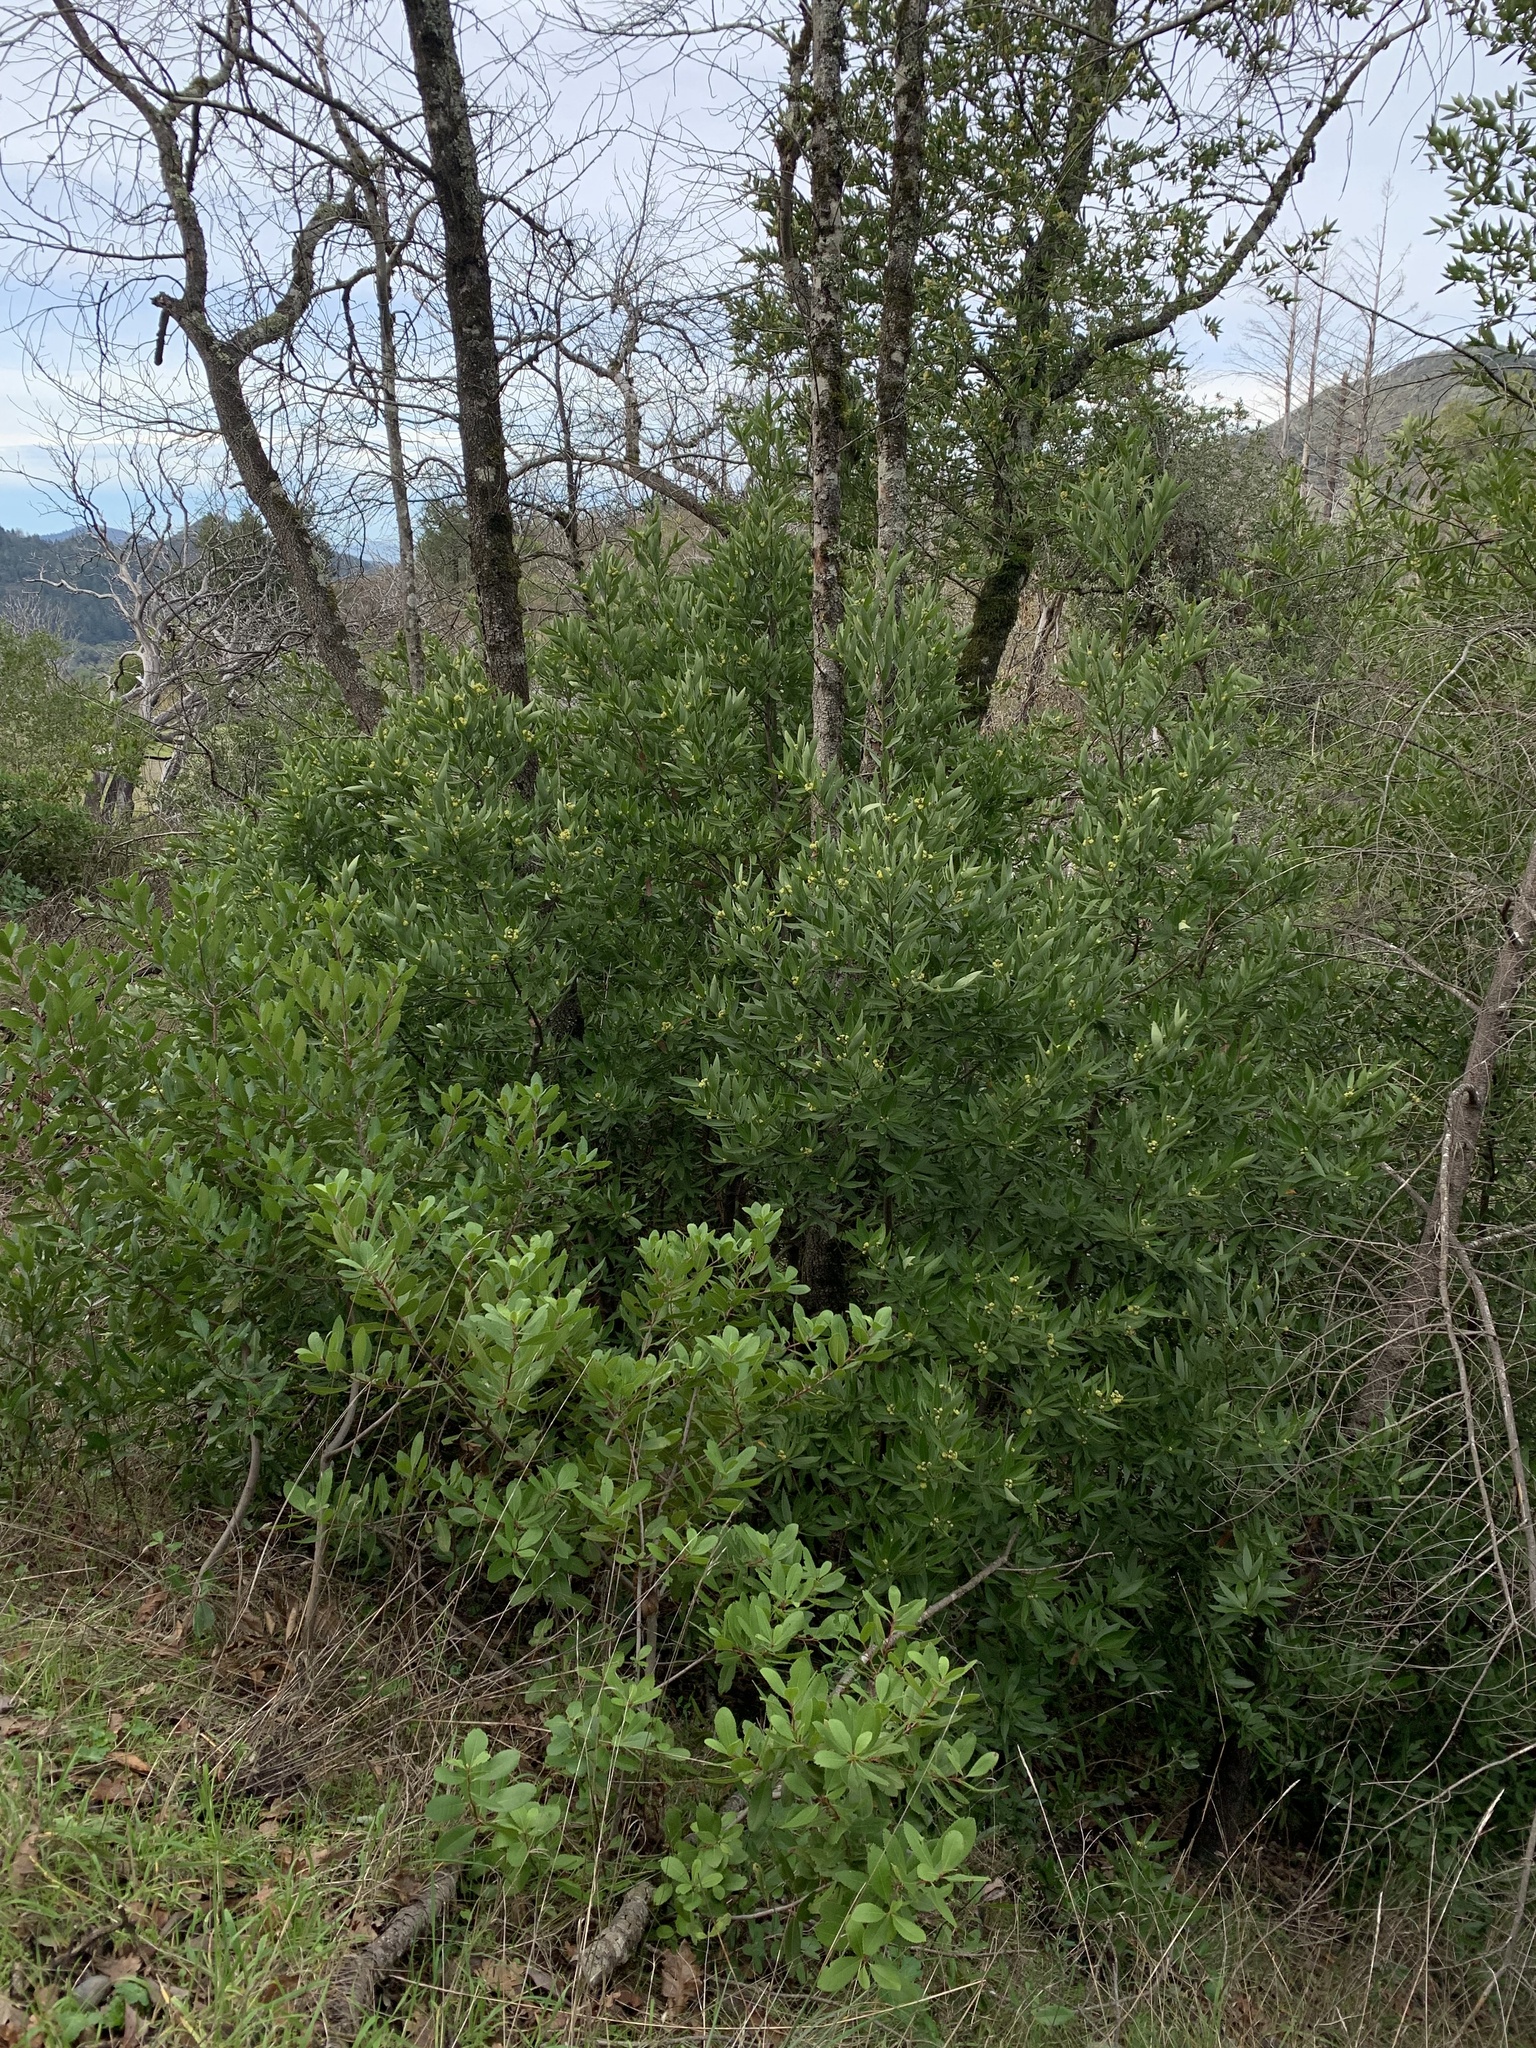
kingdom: Plantae
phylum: Tracheophyta
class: Magnoliopsida
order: Laurales
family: Lauraceae
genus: Umbellularia
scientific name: Umbellularia californica
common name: California bay
